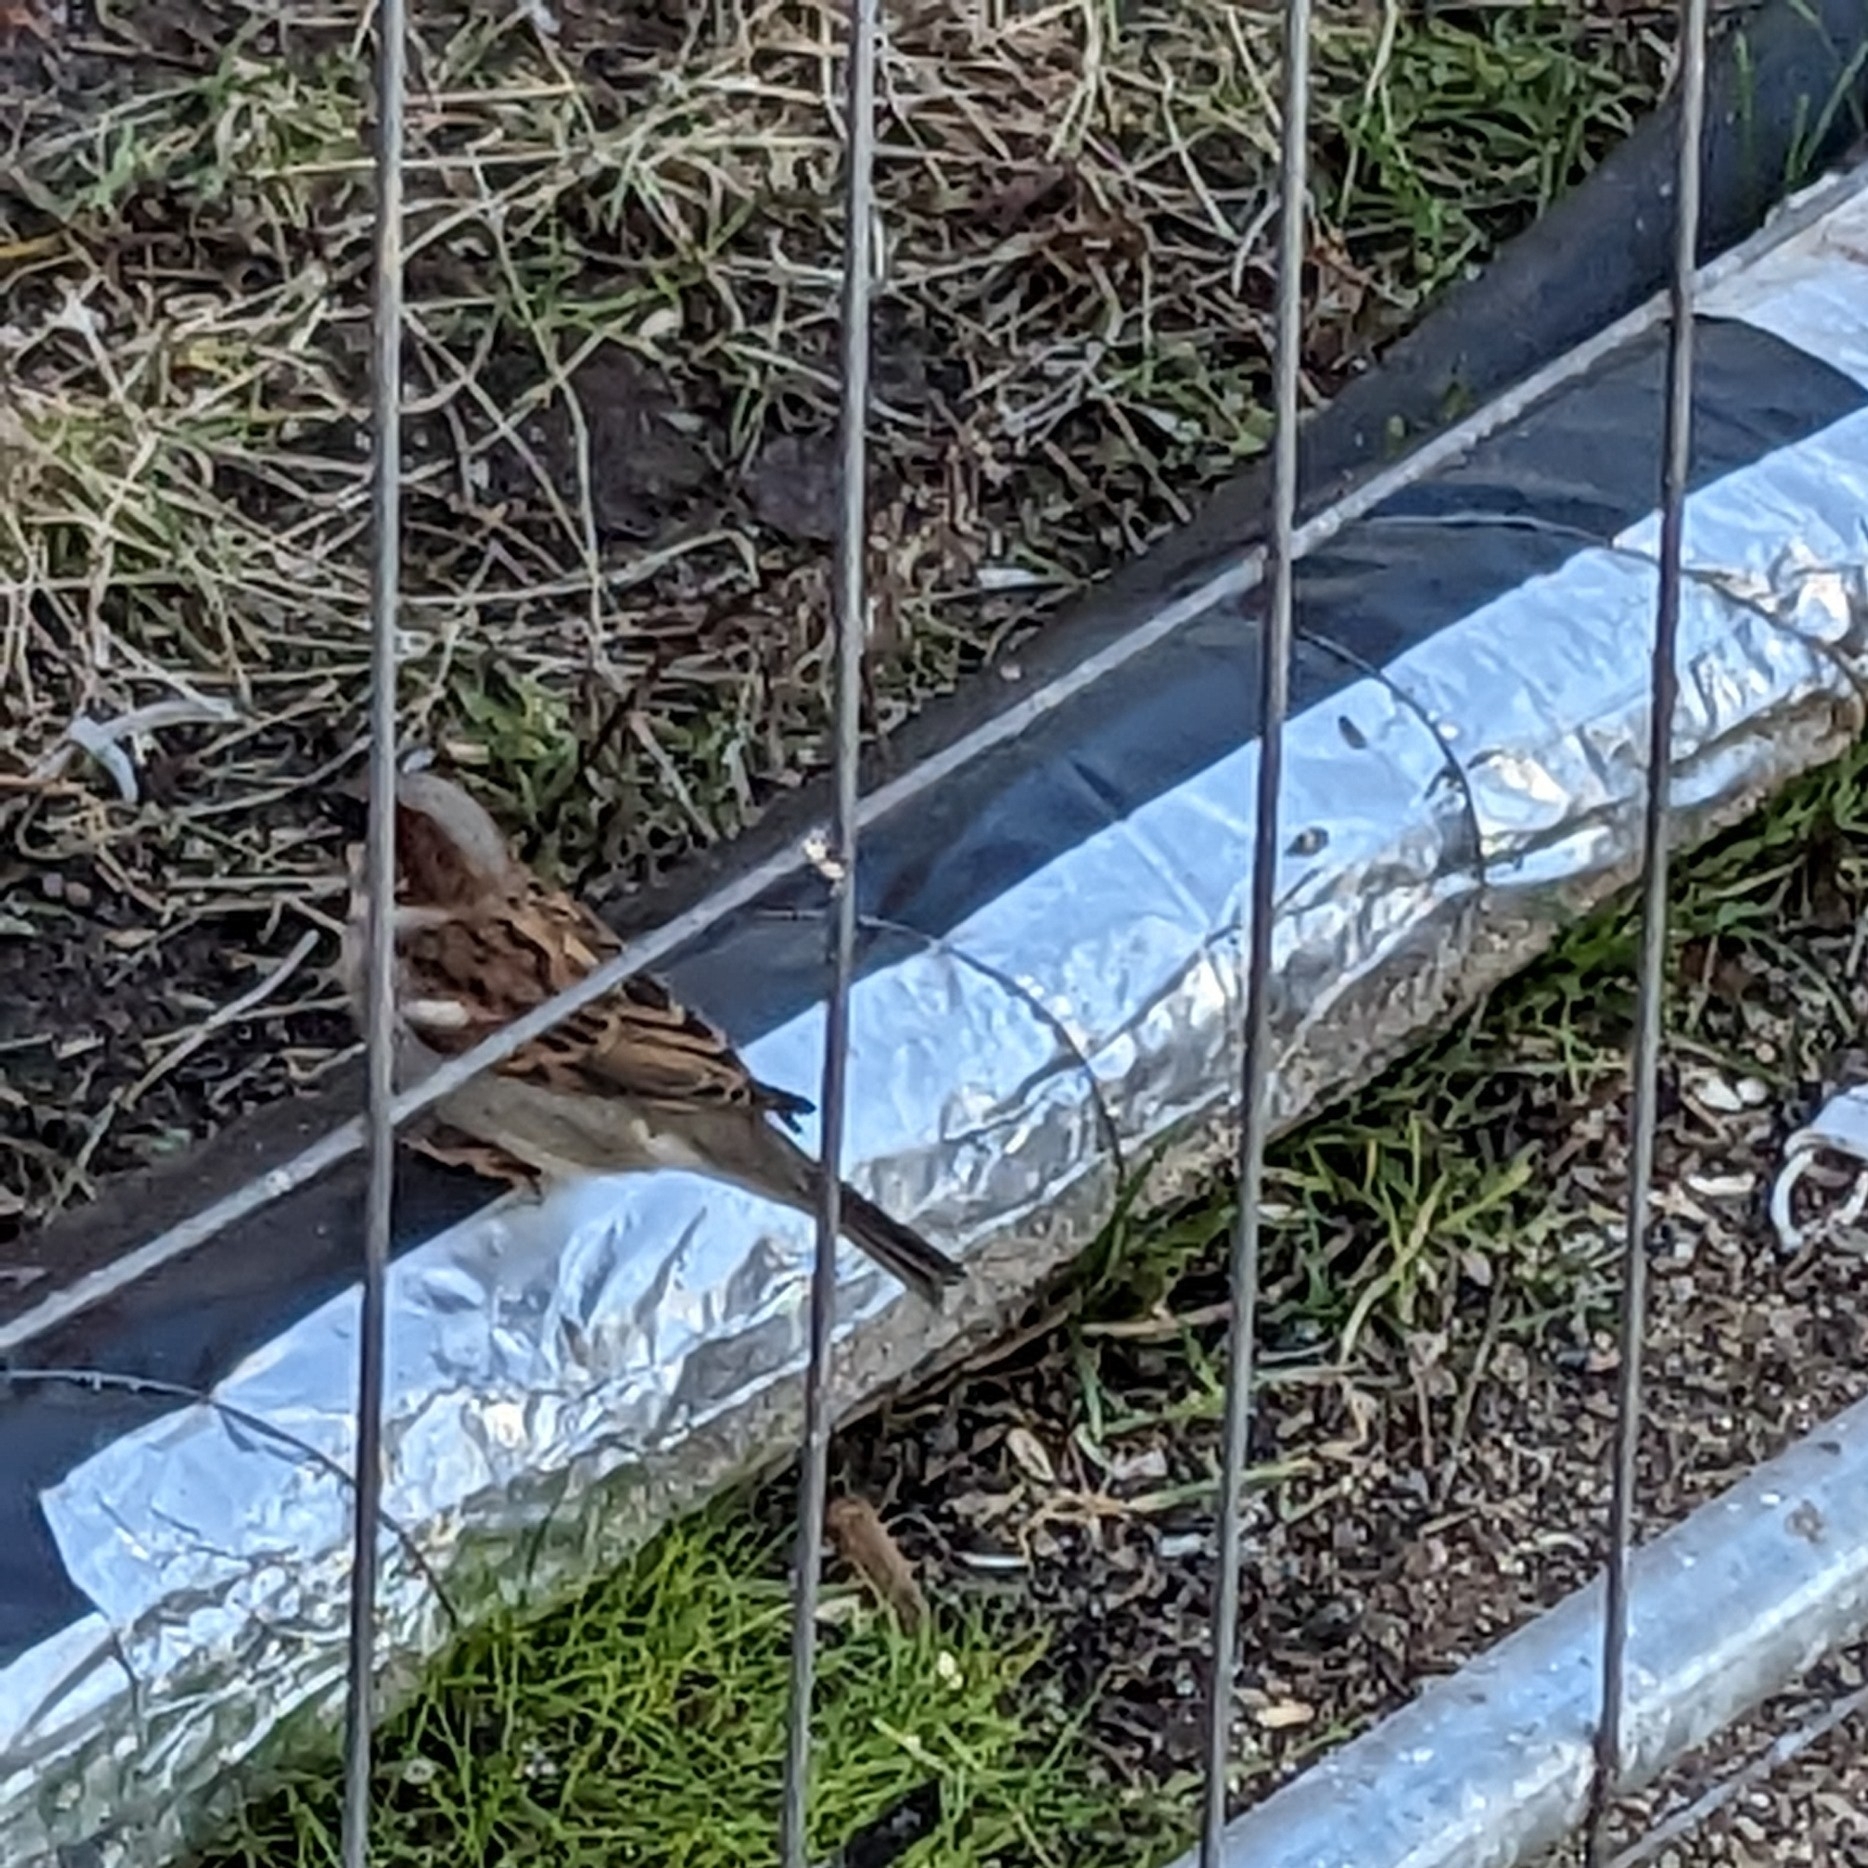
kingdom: Animalia
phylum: Chordata
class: Aves
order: Passeriformes
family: Passeridae
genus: Passer
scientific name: Passer domesticus
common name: House sparrow
